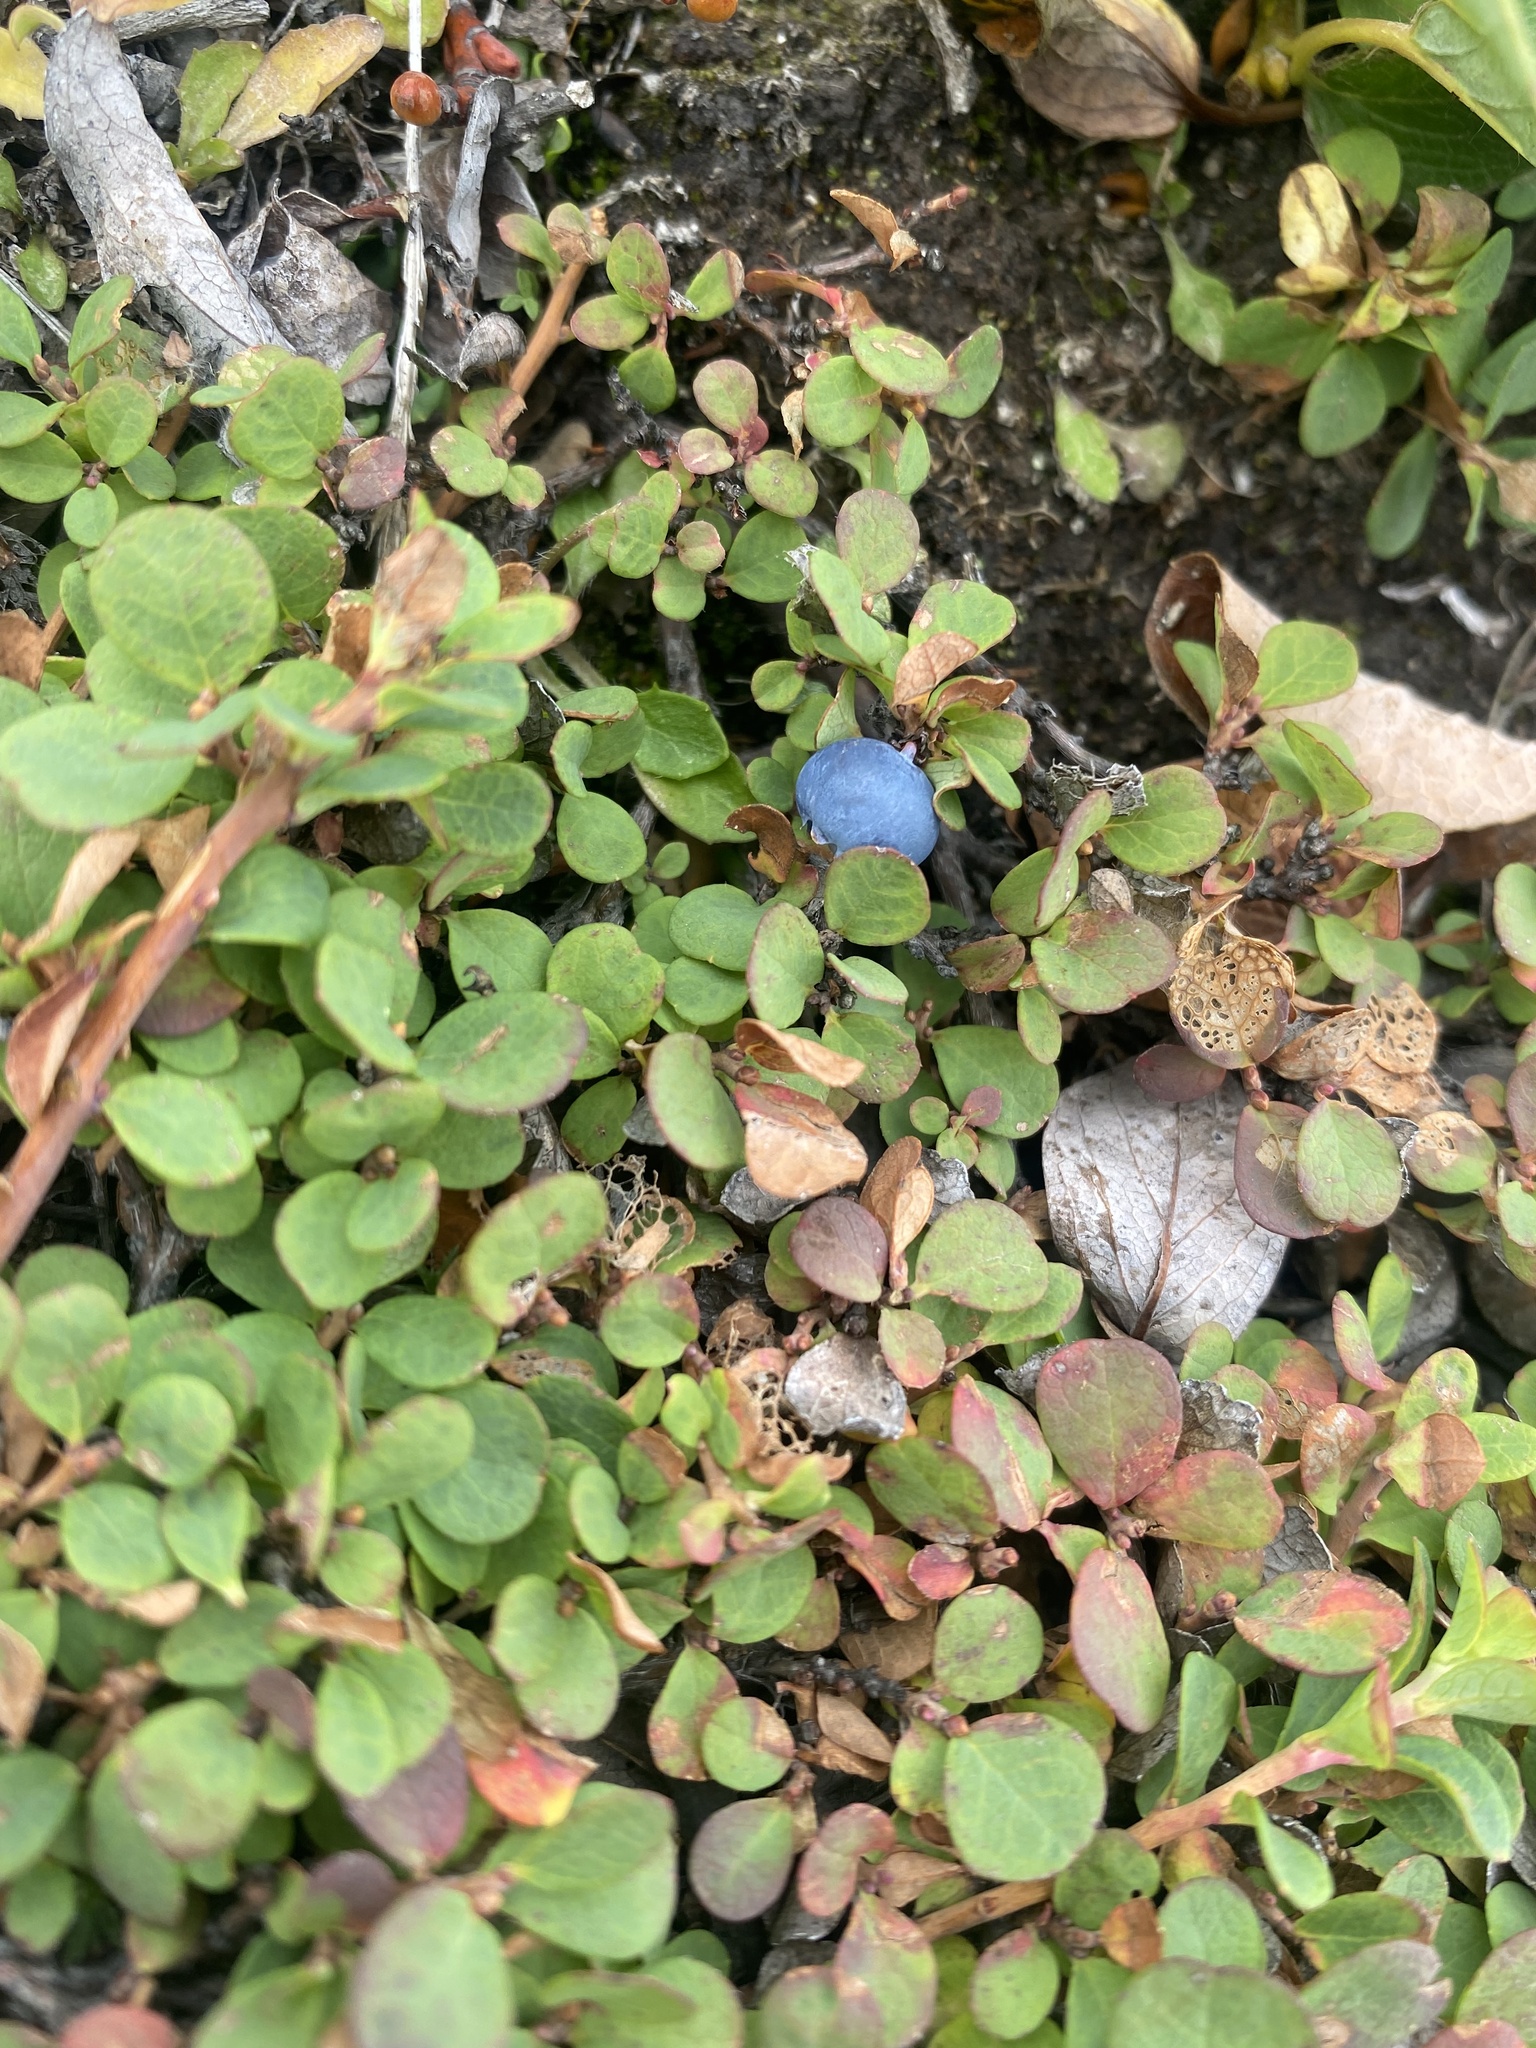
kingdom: Plantae
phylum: Tracheophyta
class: Magnoliopsida
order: Ericales
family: Ericaceae
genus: Vaccinium
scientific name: Vaccinium uliginosum
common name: Bog bilberry
